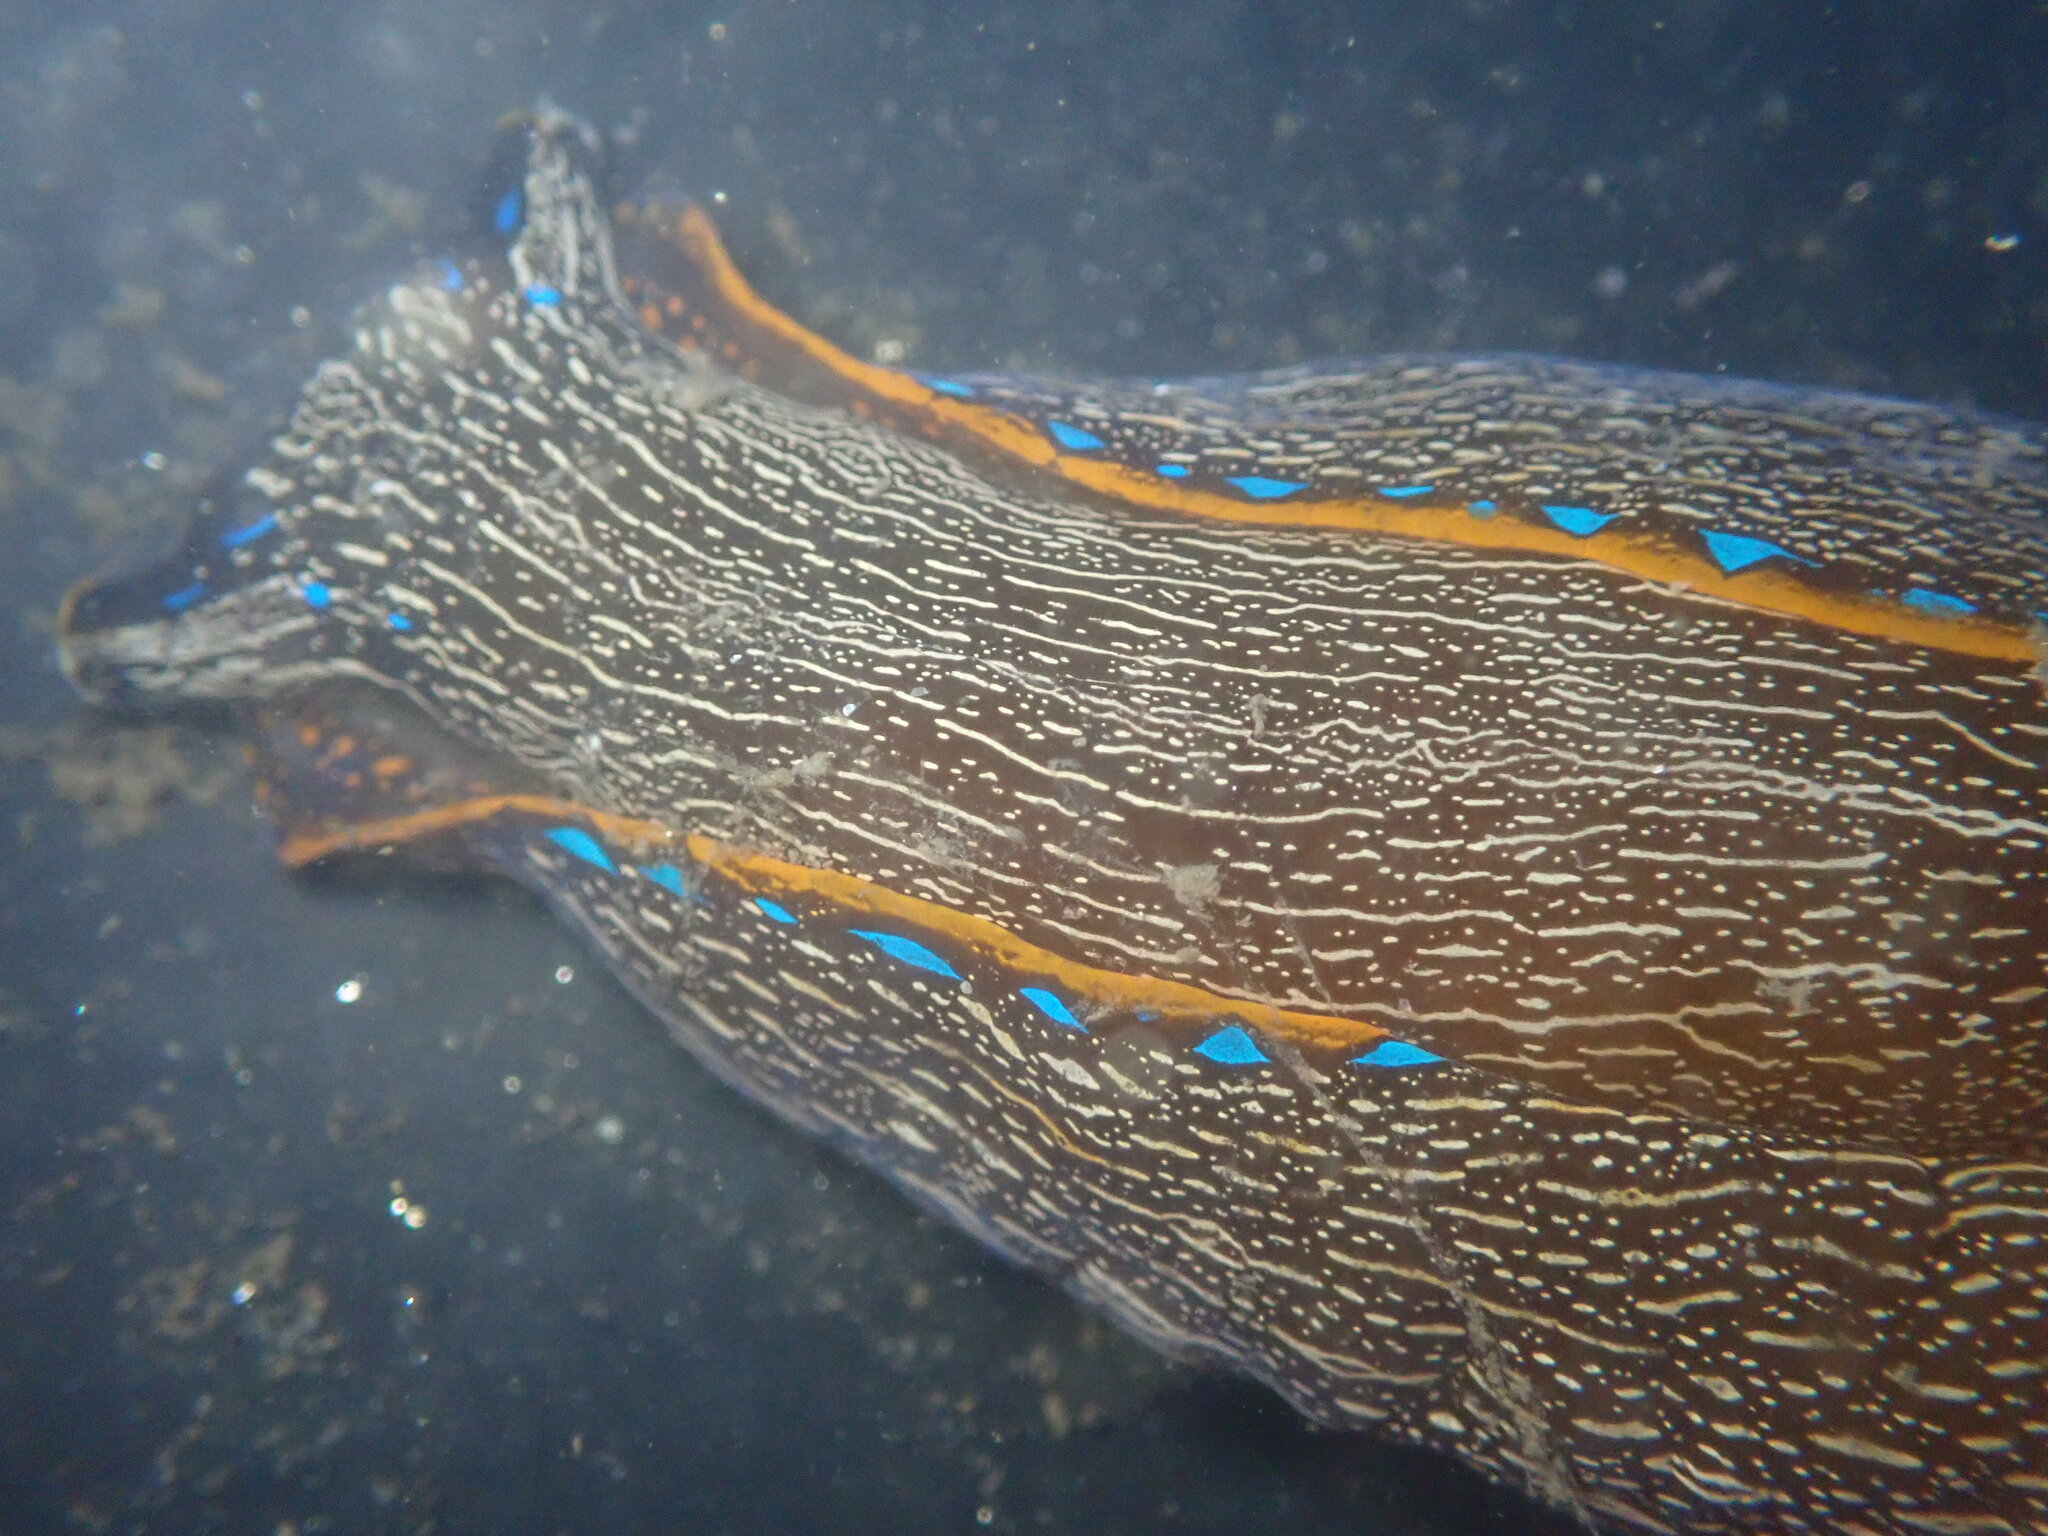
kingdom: Animalia
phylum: Mollusca
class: Gastropoda
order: Cephalaspidea
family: Aglajidae
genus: Navanax
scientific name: Navanax inermis
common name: California aglaja
